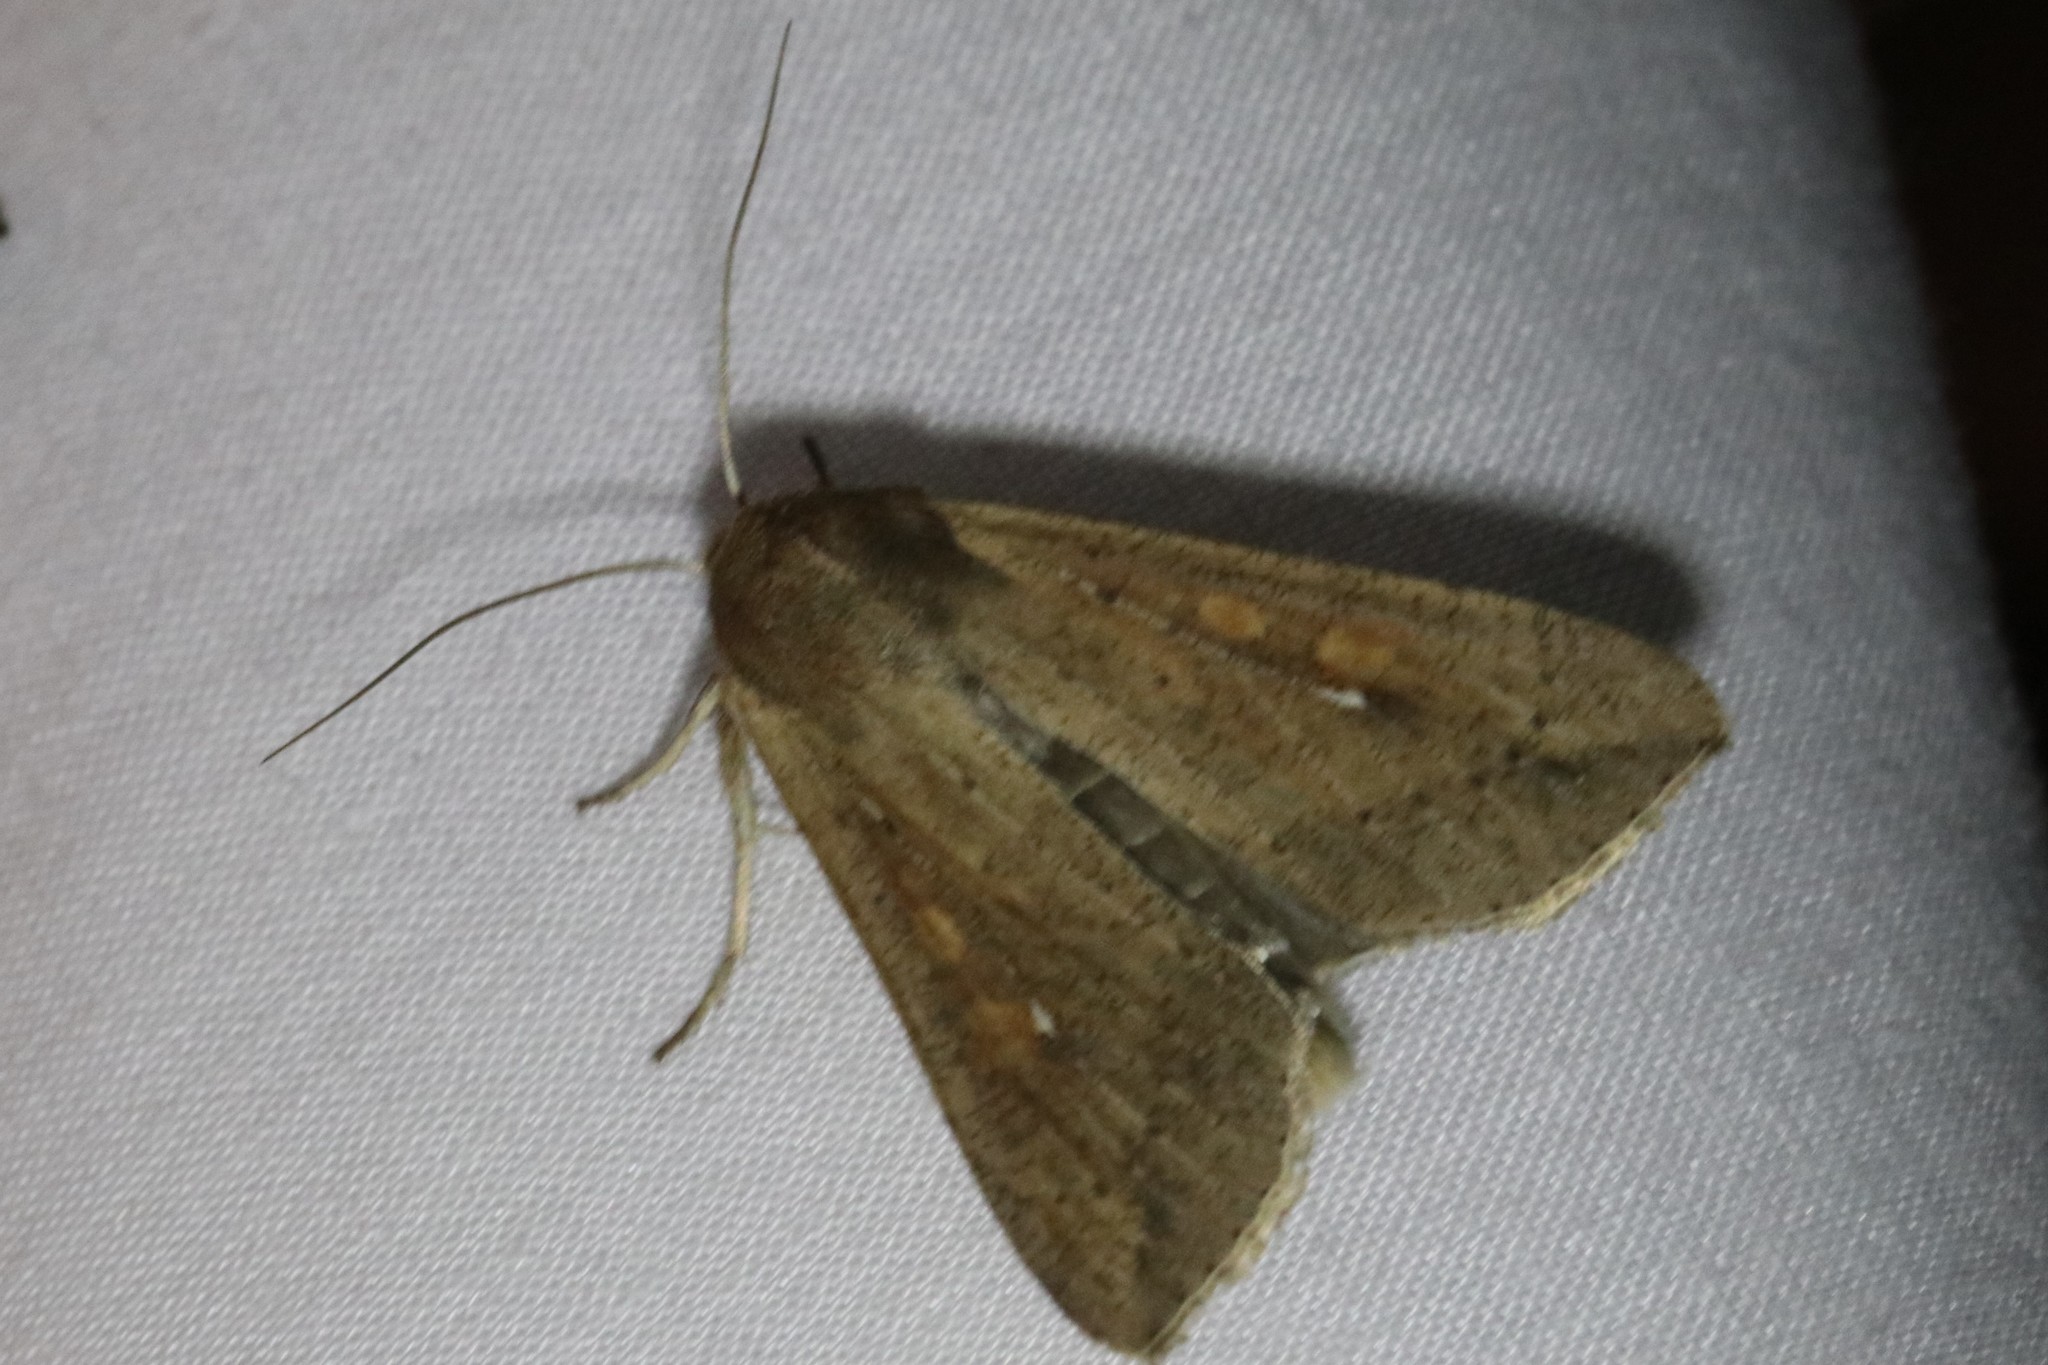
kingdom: Animalia
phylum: Arthropoda
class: Insecta
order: Lepidoptera
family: Noctuidae
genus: Mythimna
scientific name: Mythimna unipuncta
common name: White-speck
